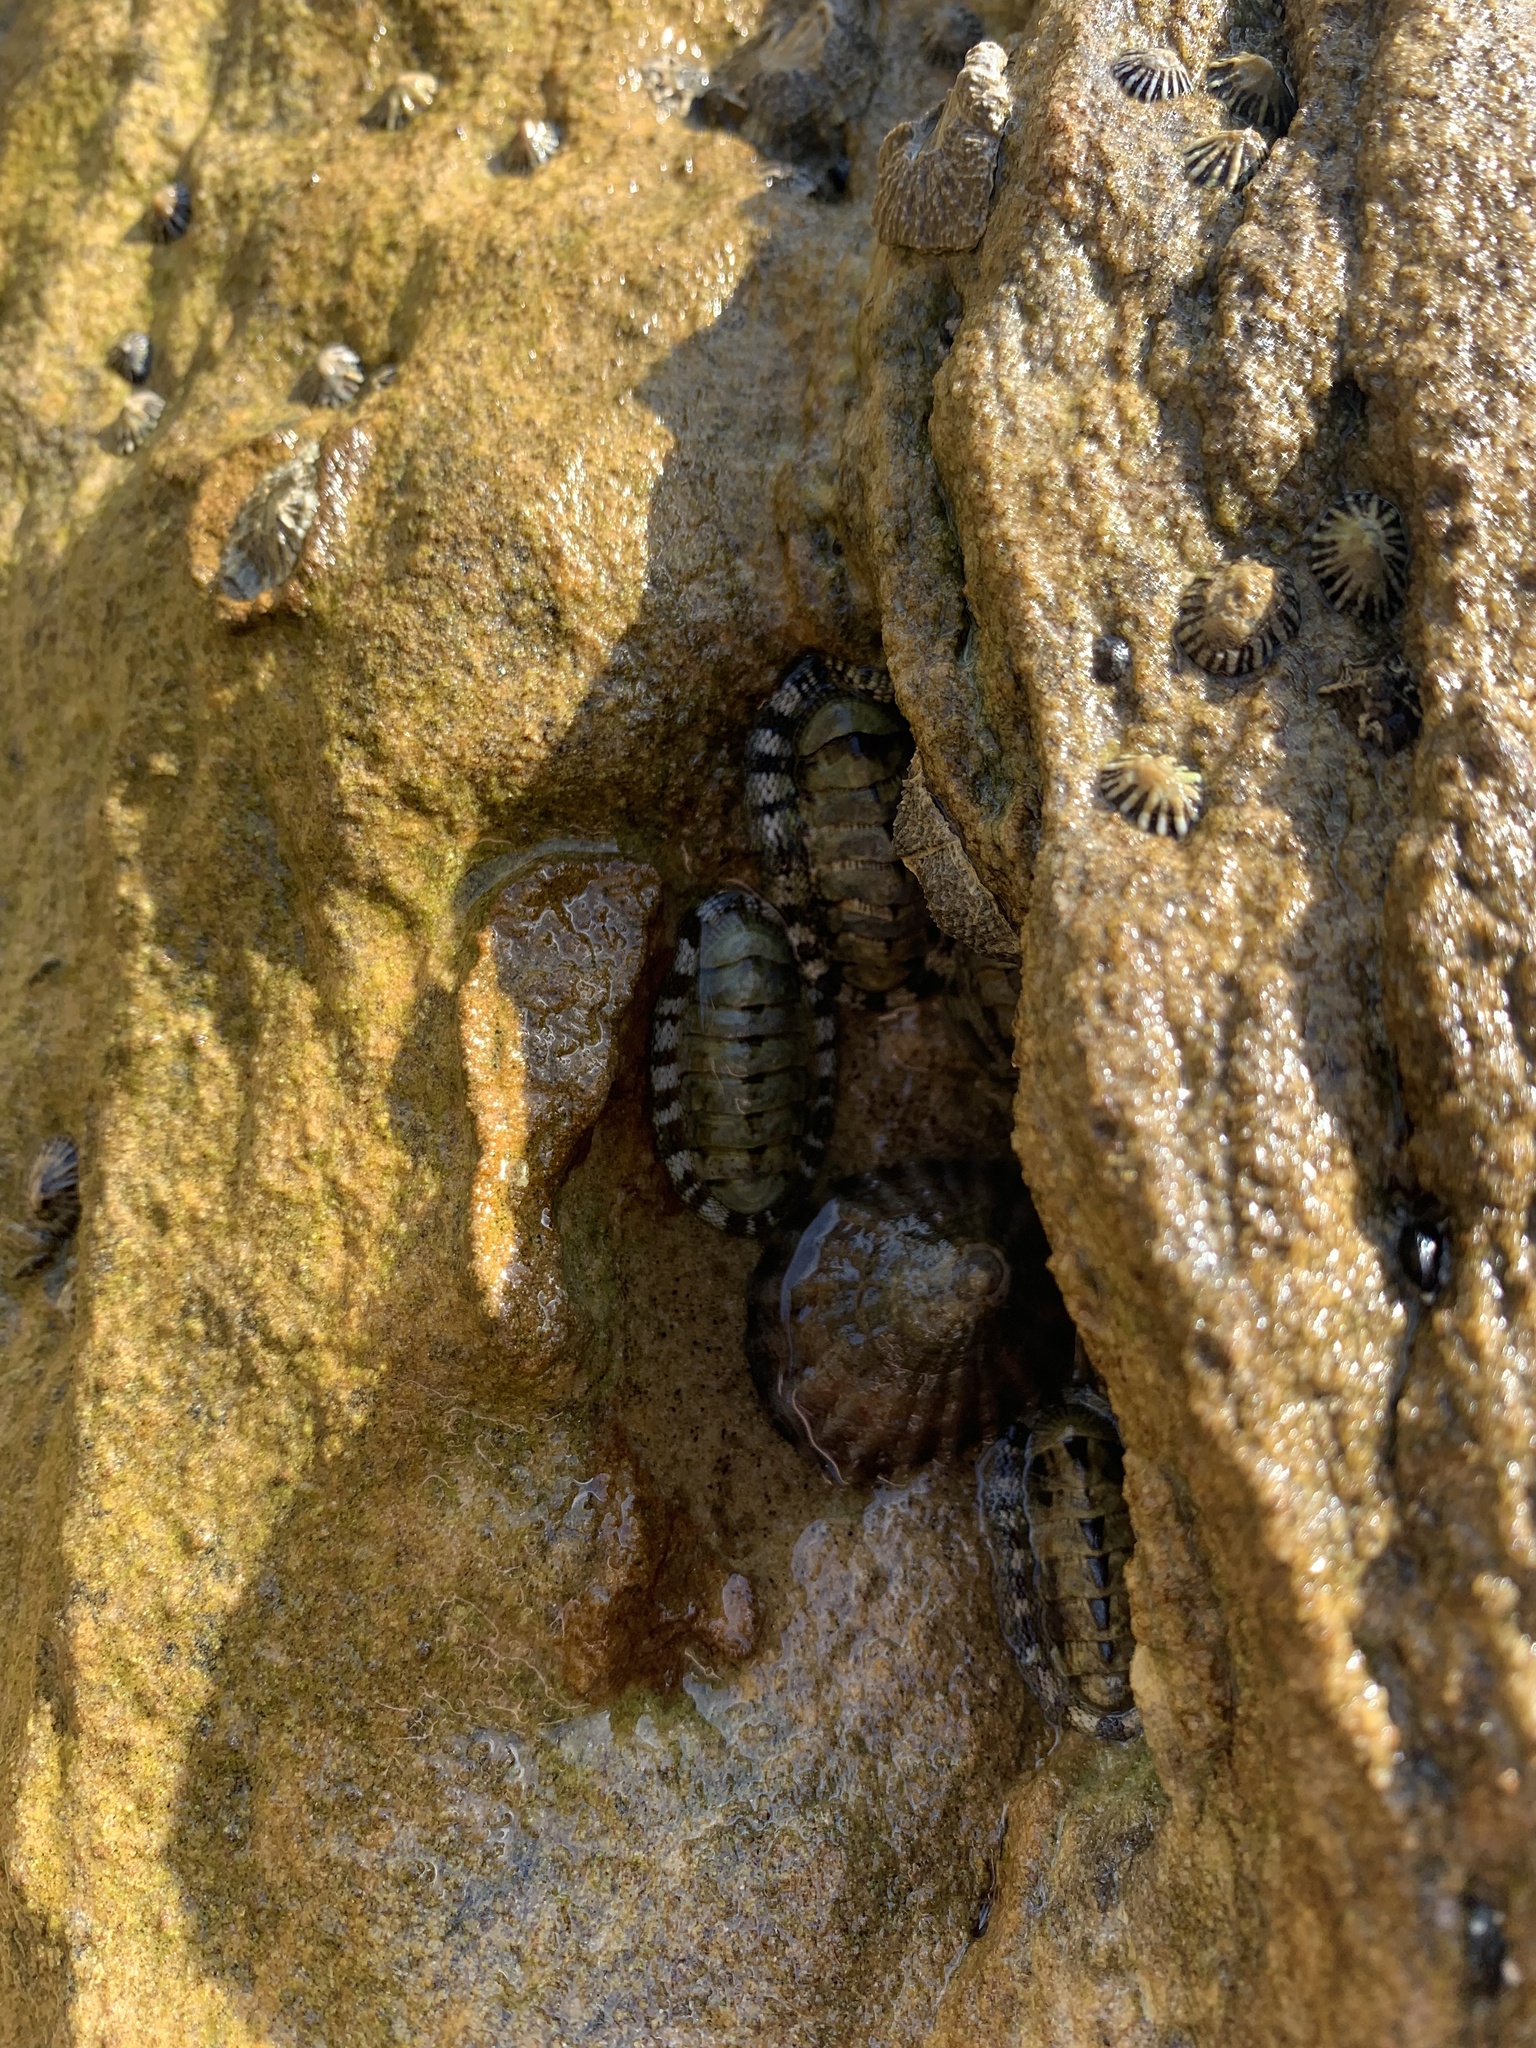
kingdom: Animalia
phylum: Mollusca
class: Polyplacophora
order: Chitonida
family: Chitonidae
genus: Sypharochiton
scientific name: Sypharochiton pelliserpentis
